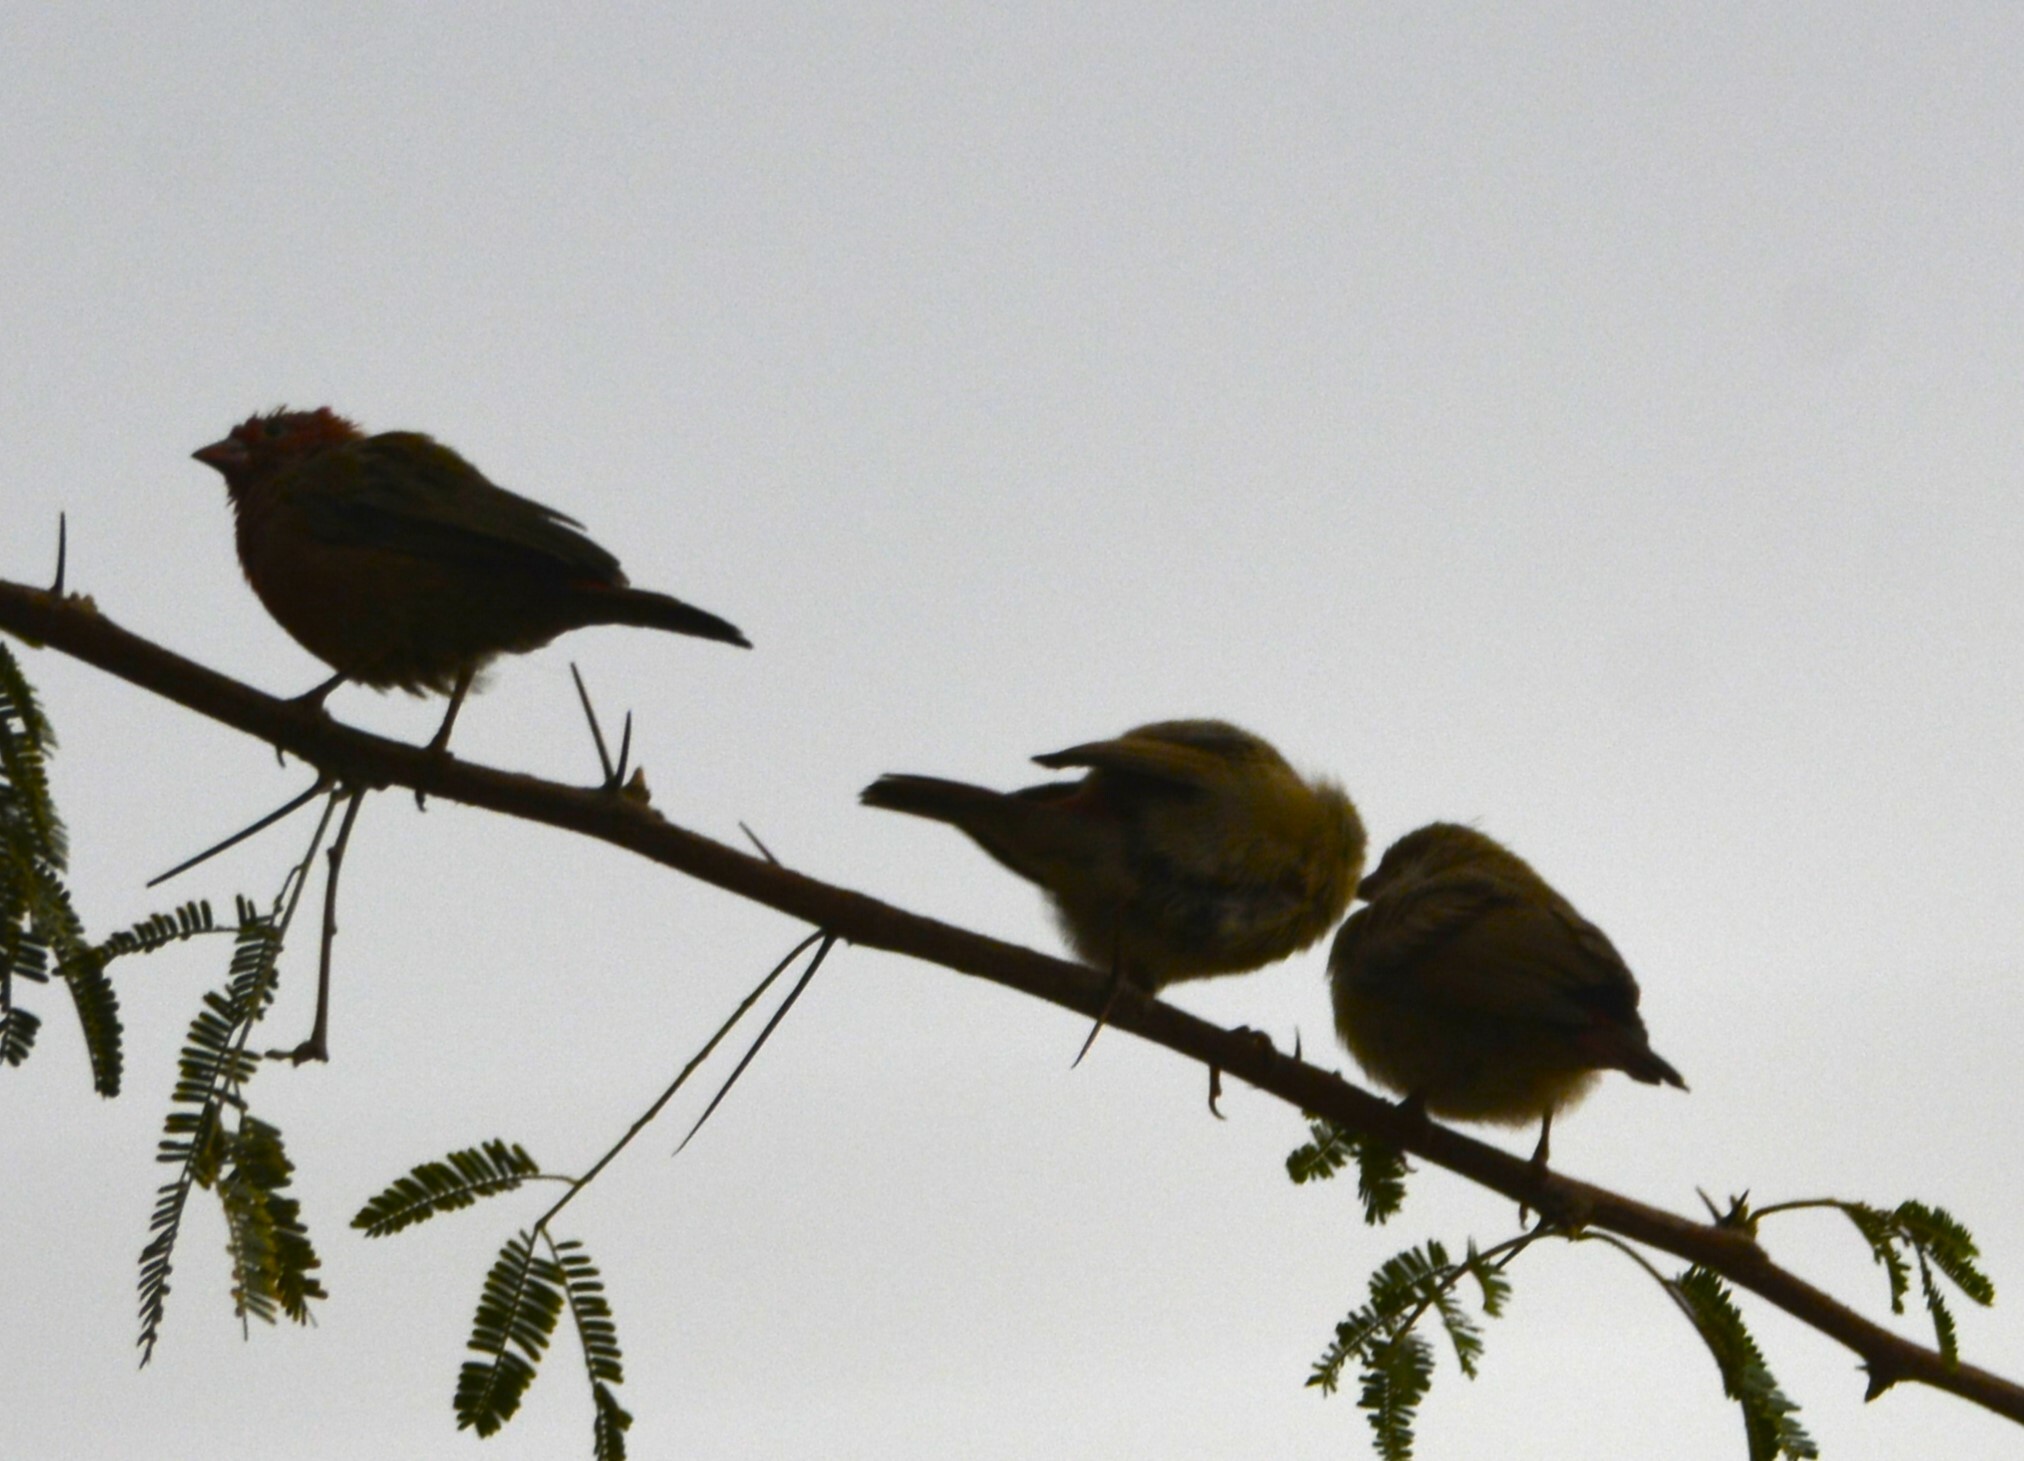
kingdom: Animalia
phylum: Chordata
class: Aves
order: Passeriformes
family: Estrildidae
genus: Lagonosticta
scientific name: Lagonosticta senegala
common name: Red-billed firefinch
